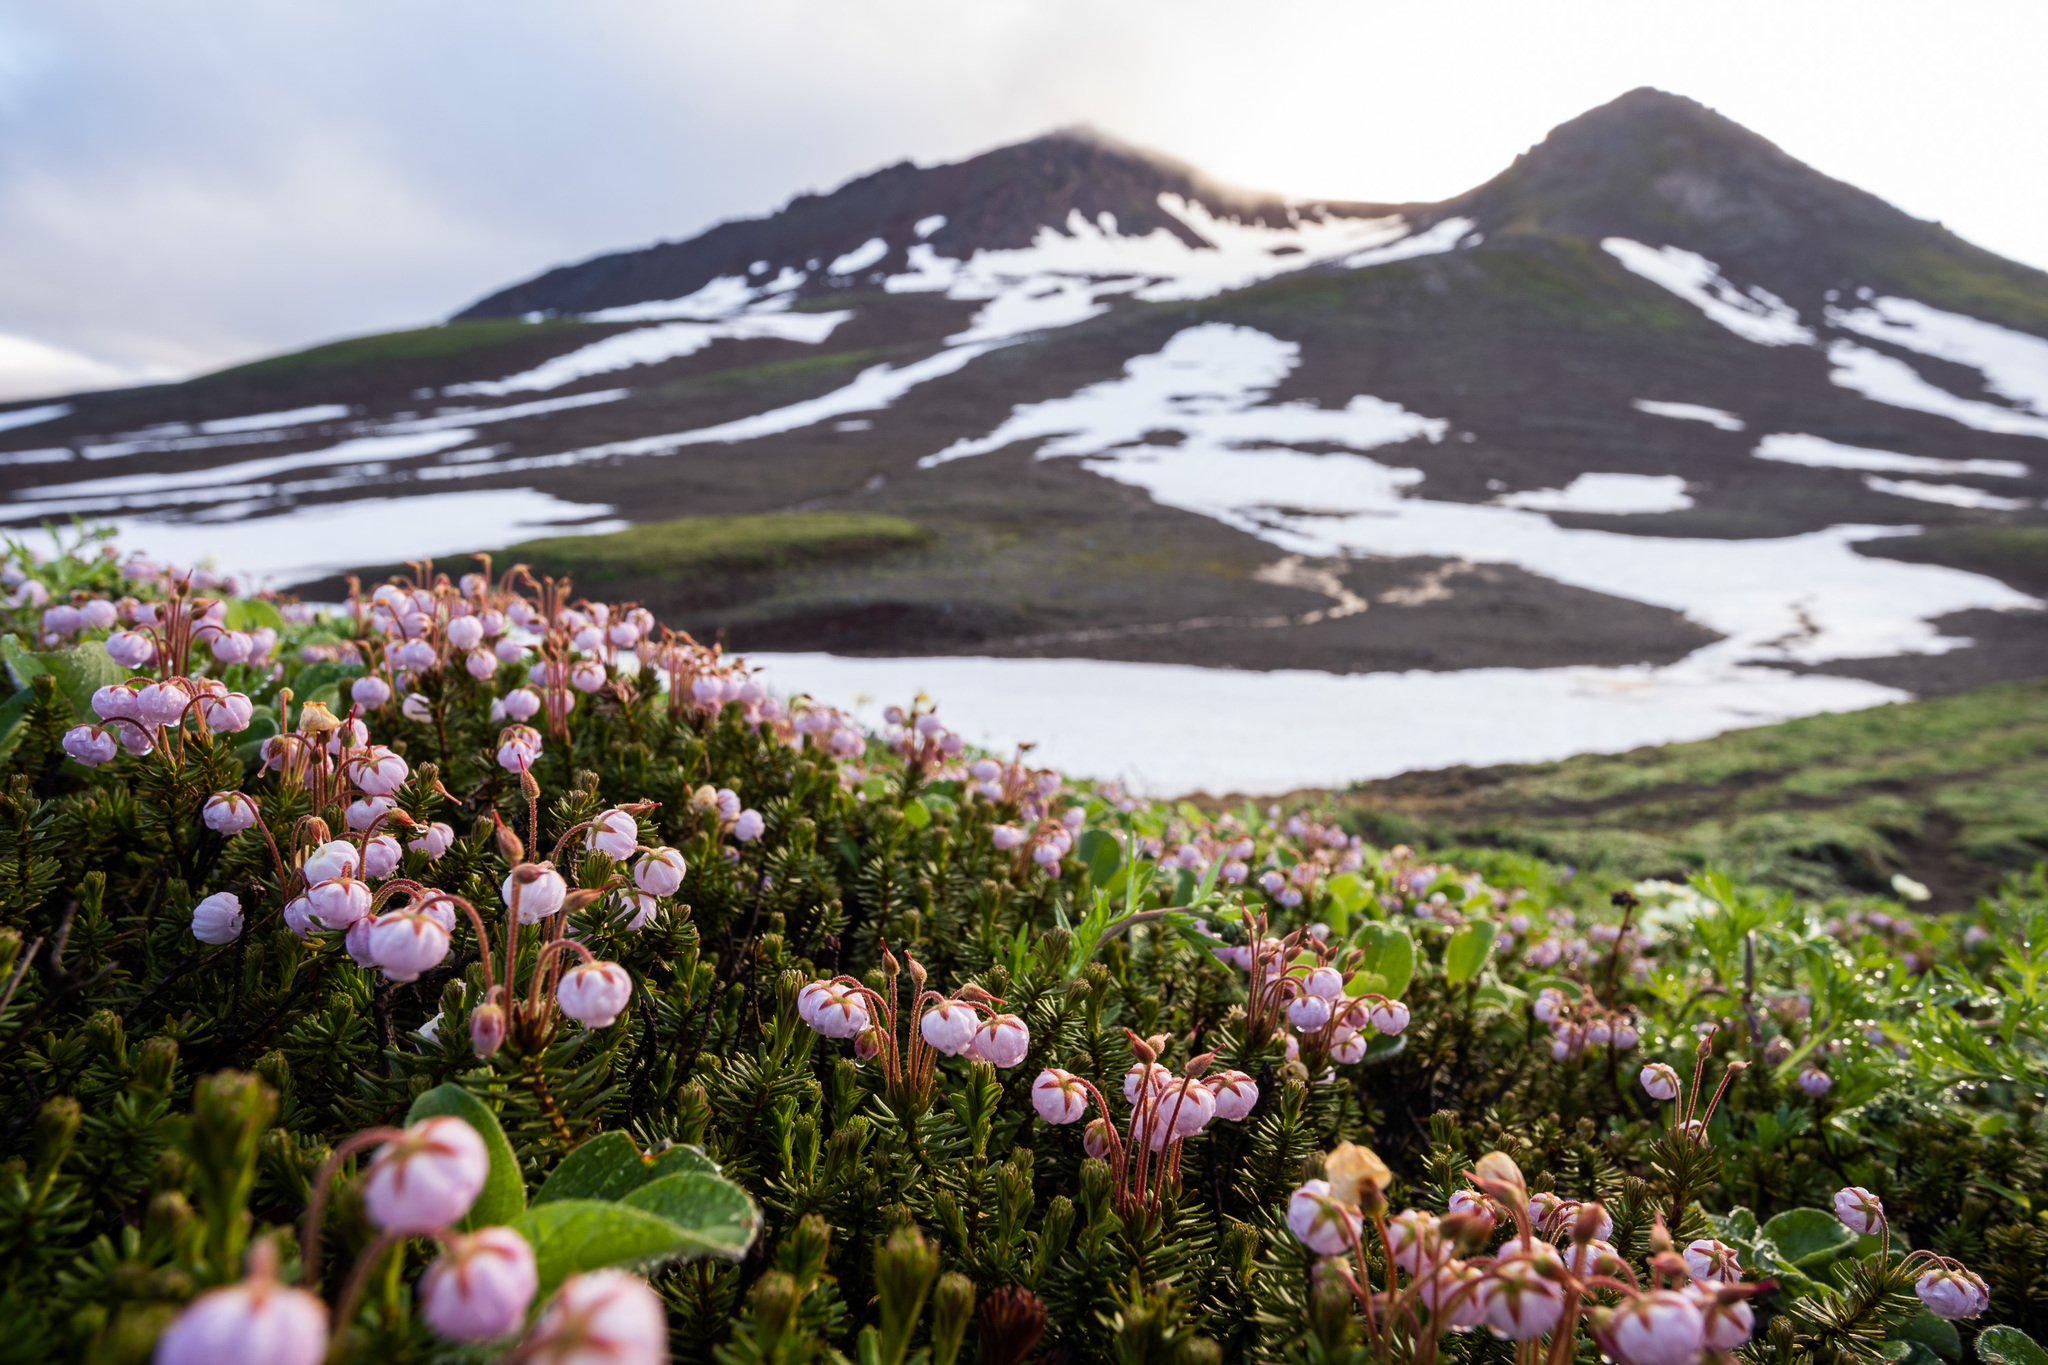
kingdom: Plantae
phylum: Tracheophyta
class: Magnoliopsida
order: Ericales
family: Ericaceae
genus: Phyllodoce
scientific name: Phyllodoce caerulea
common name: Blue heath
